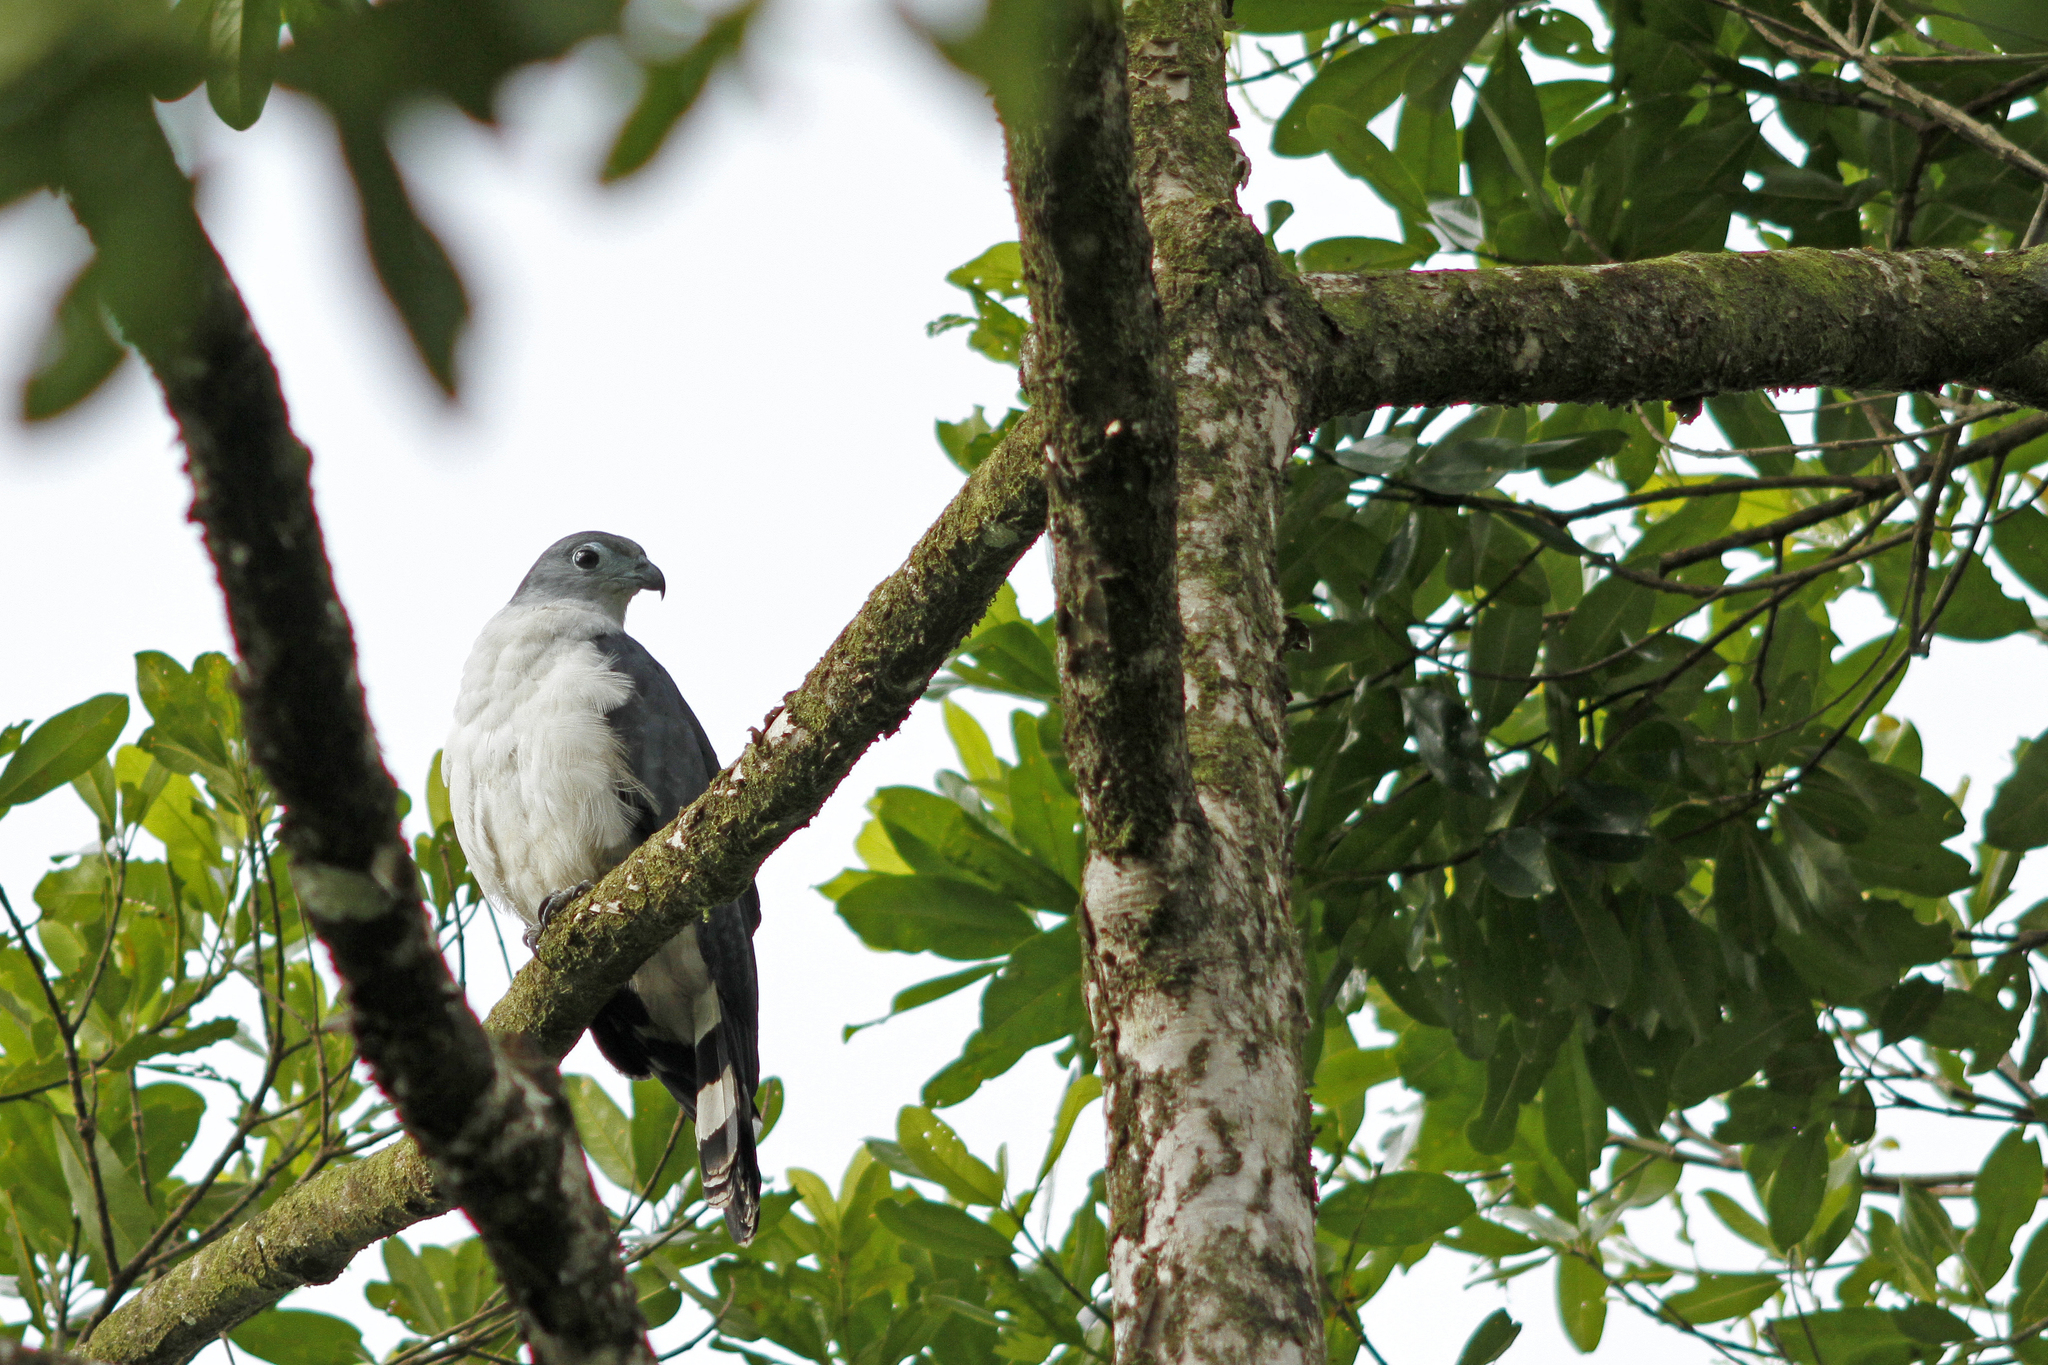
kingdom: Animalia
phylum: Chordata
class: Aves
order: Accipitriformes
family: Accipitridae
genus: Leptodon
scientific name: Leptodon cayanensis
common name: Gray-headed kite
